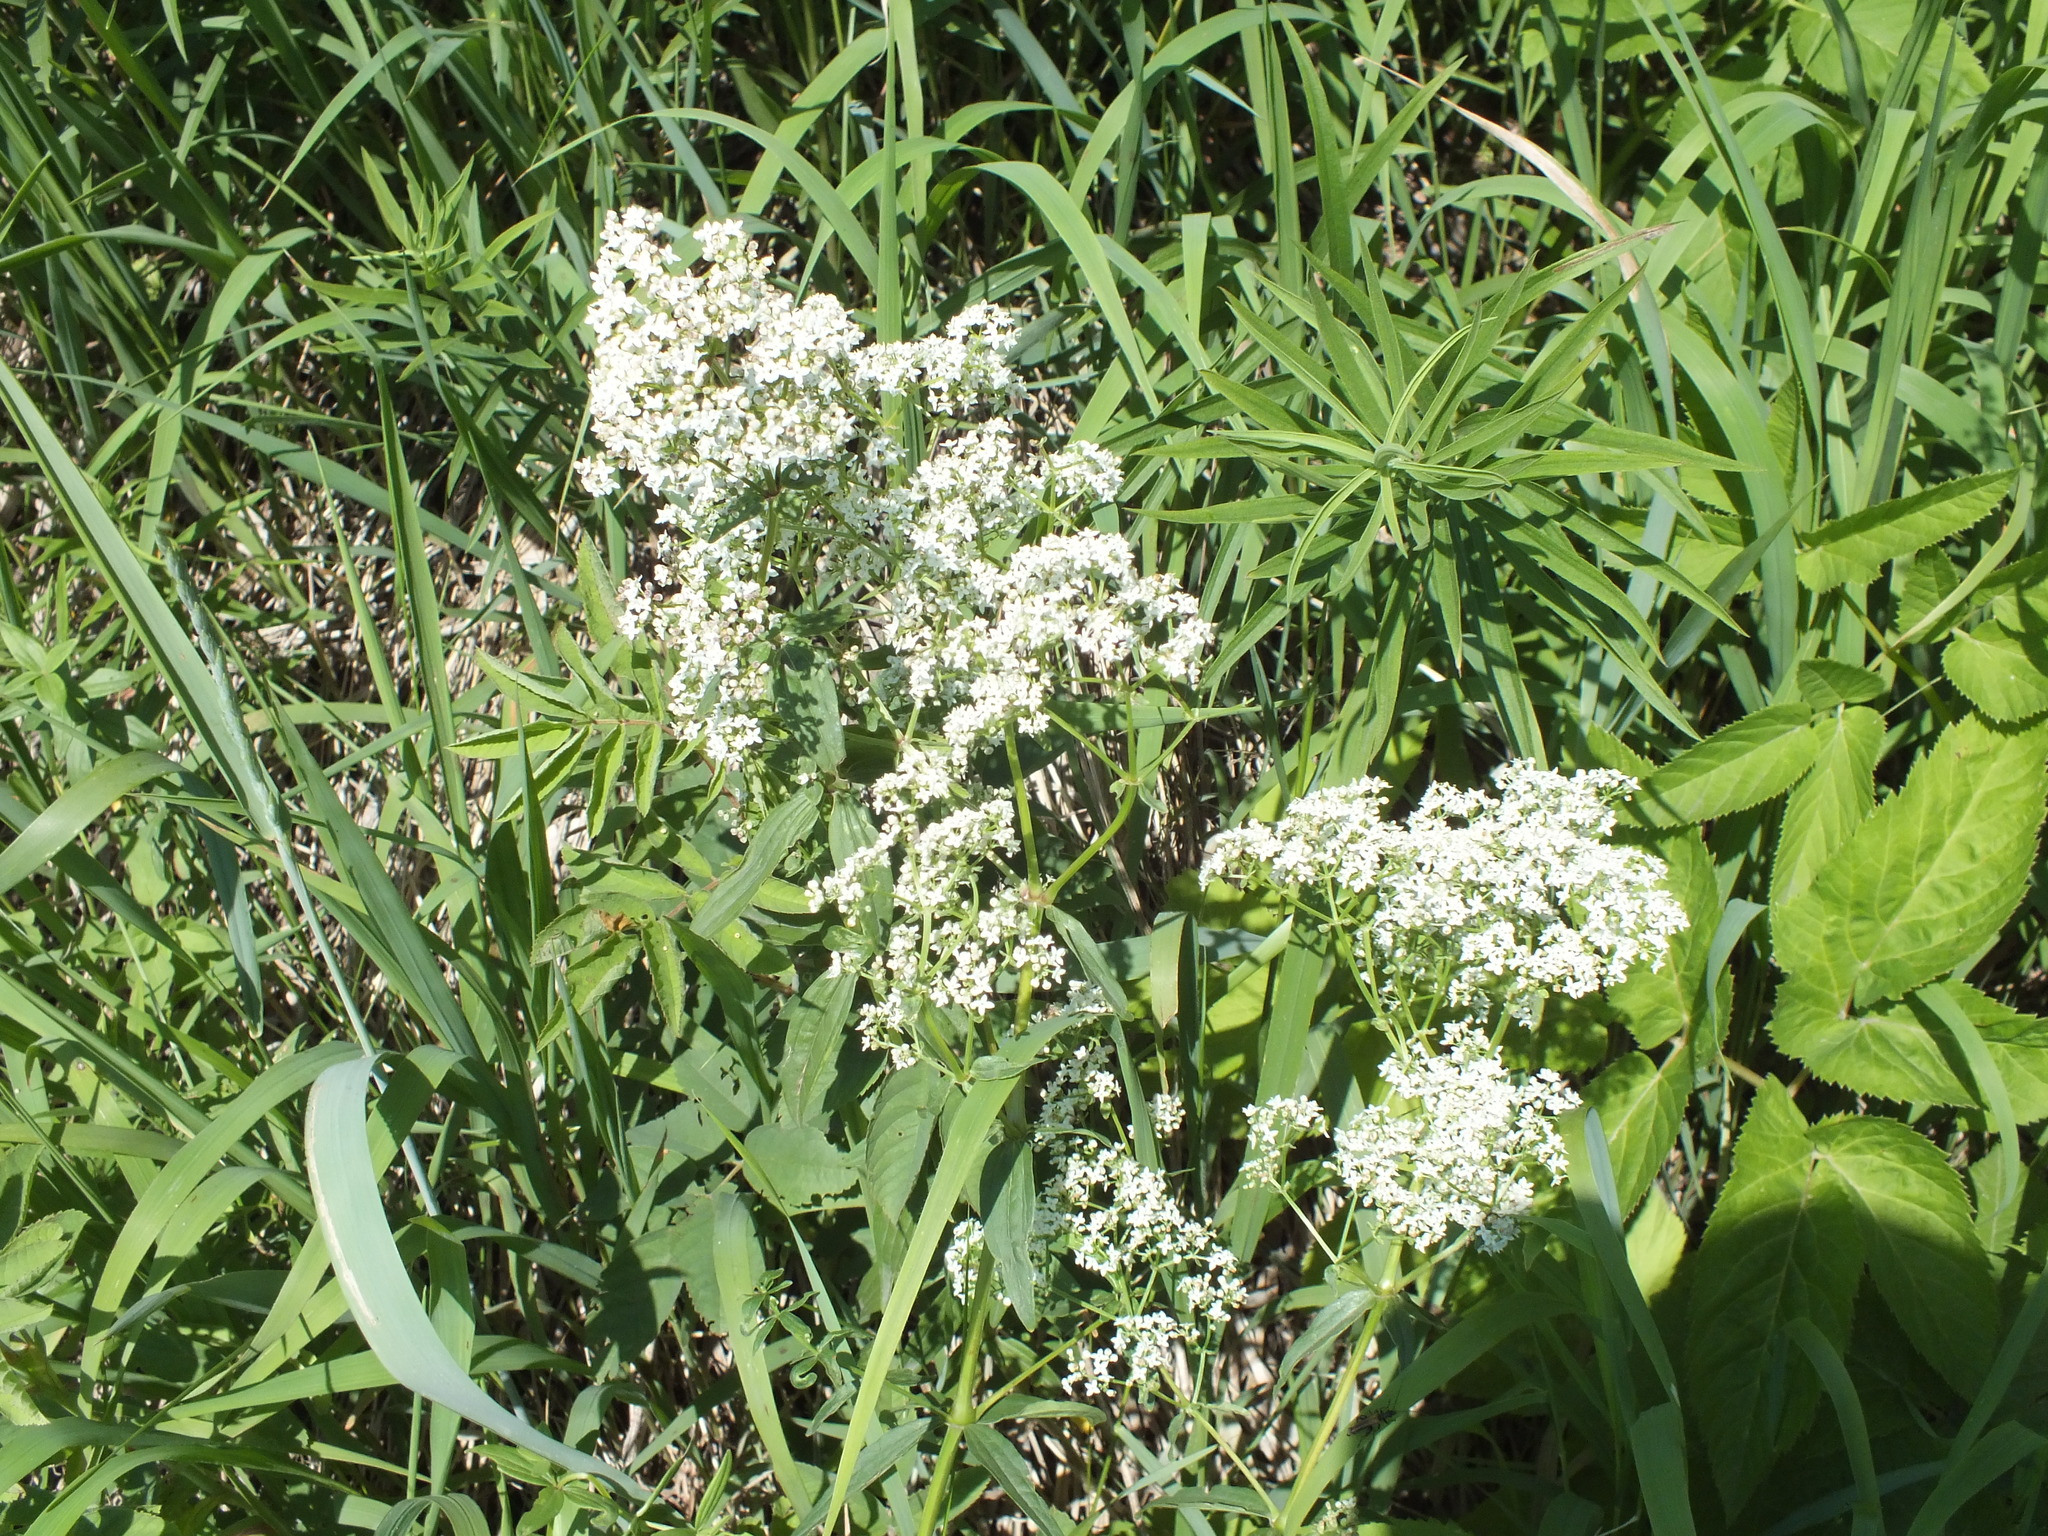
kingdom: Plantae
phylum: Tracheophyta
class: Magnoliopsida
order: Gentianales
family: Rubiaceae
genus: Galium
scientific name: Galium boreale
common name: Northern bedstraw
